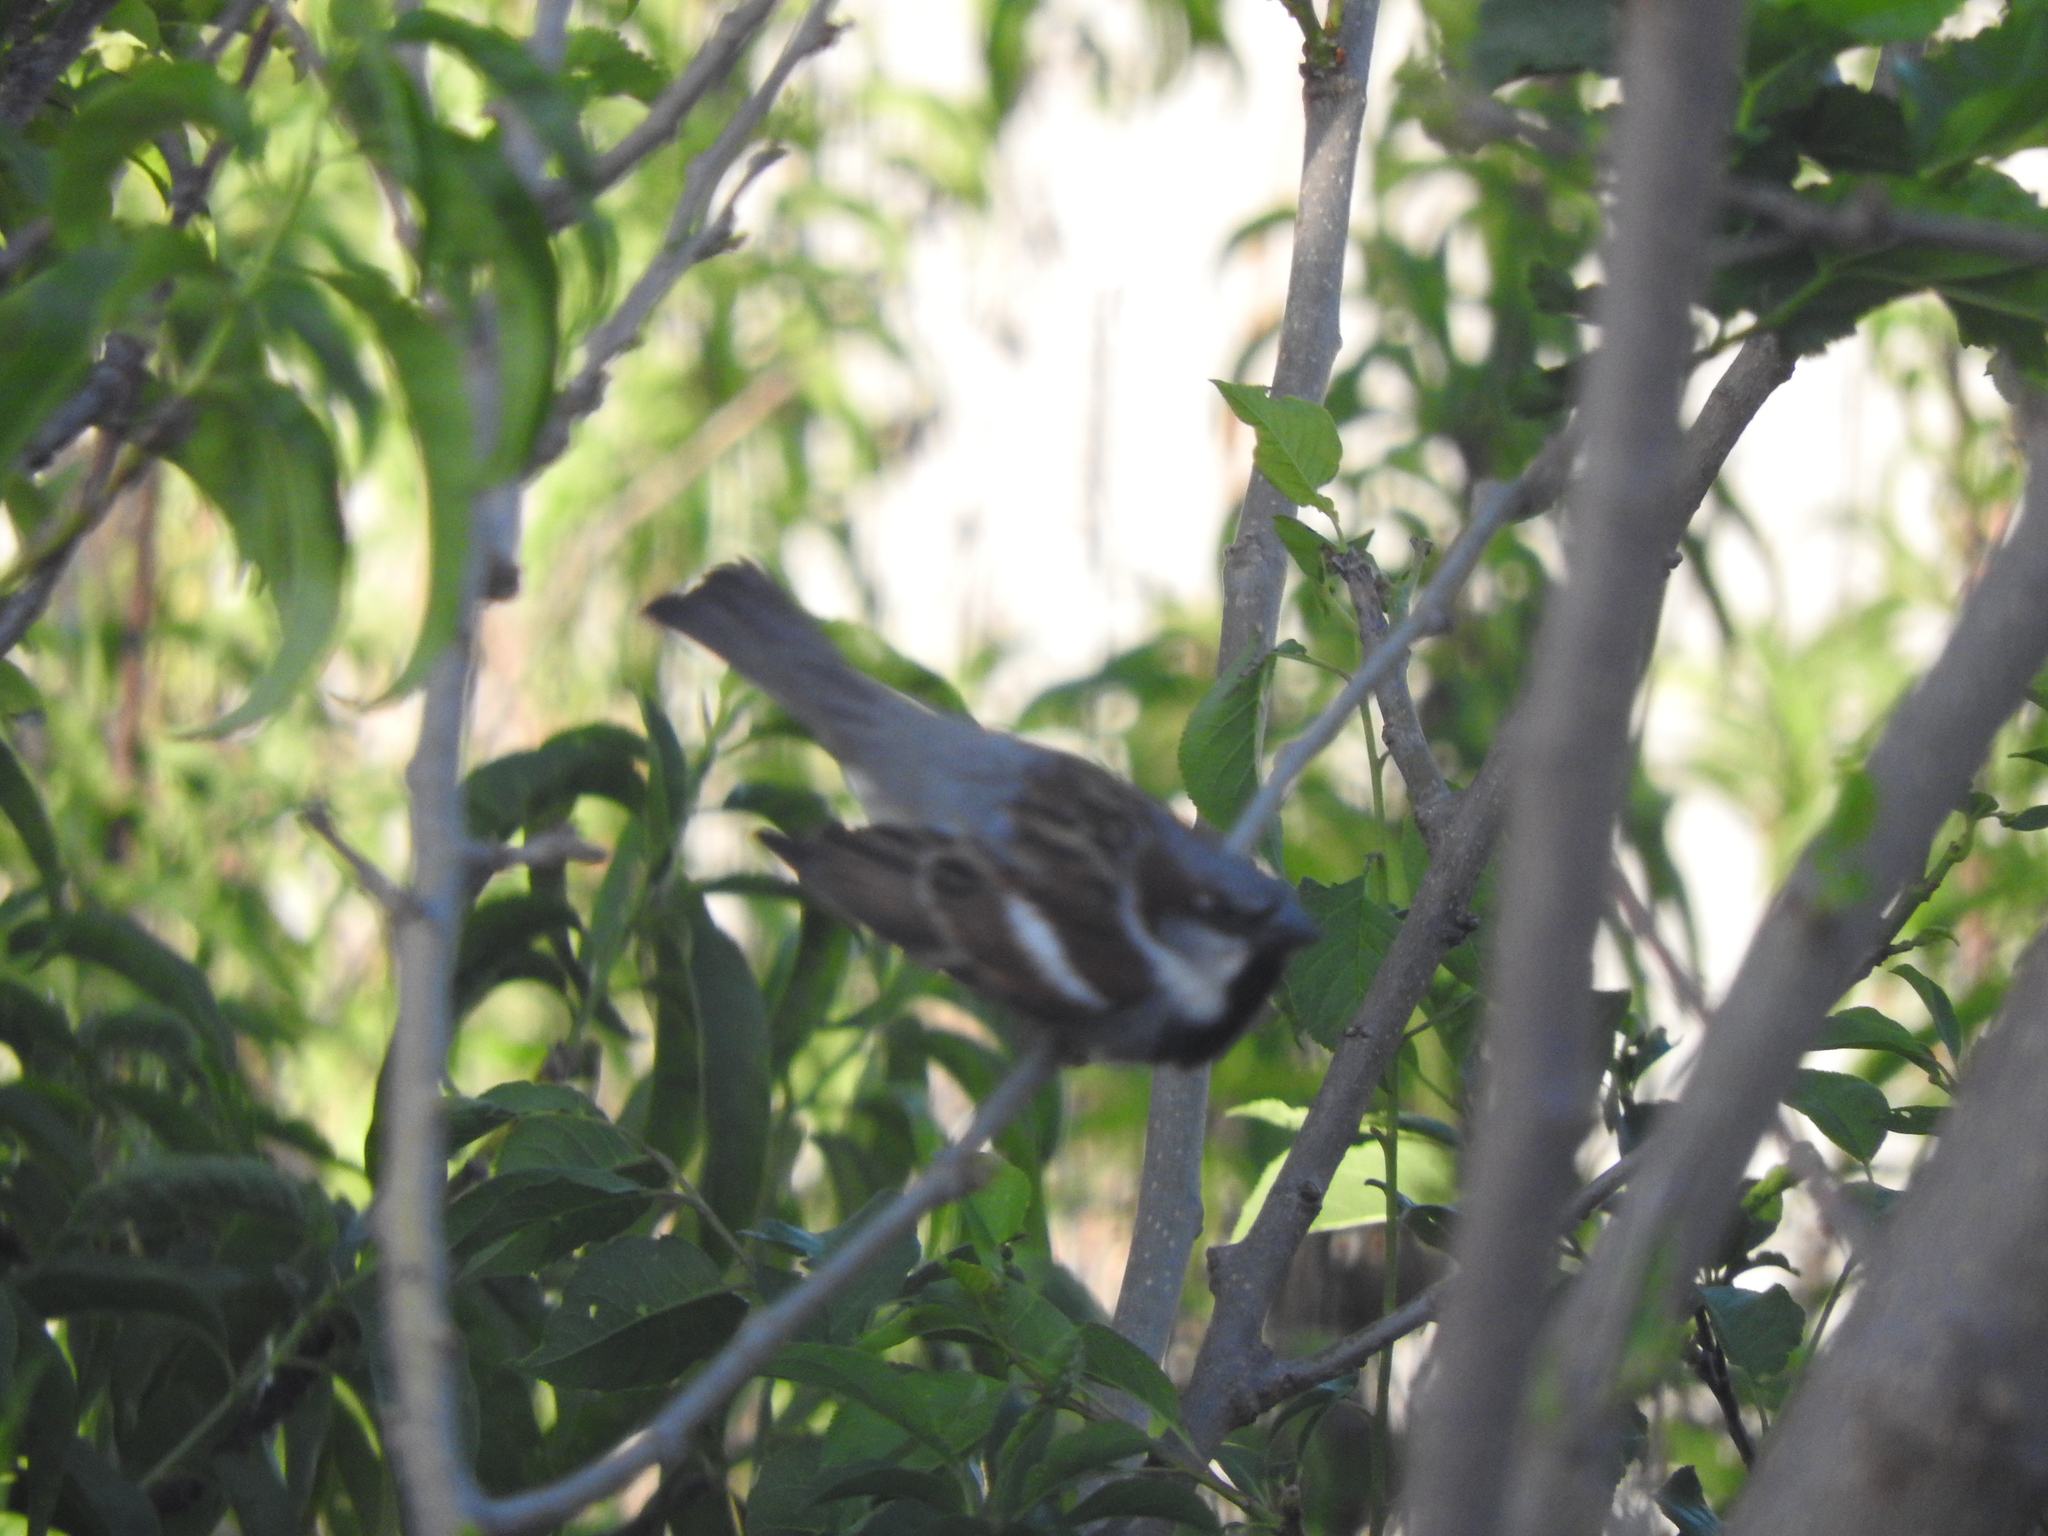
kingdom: Animalia
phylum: Chordata
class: Aves
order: Passeriformes
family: Passeridae
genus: Passer
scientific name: Passer domesticus
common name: House sparrow
